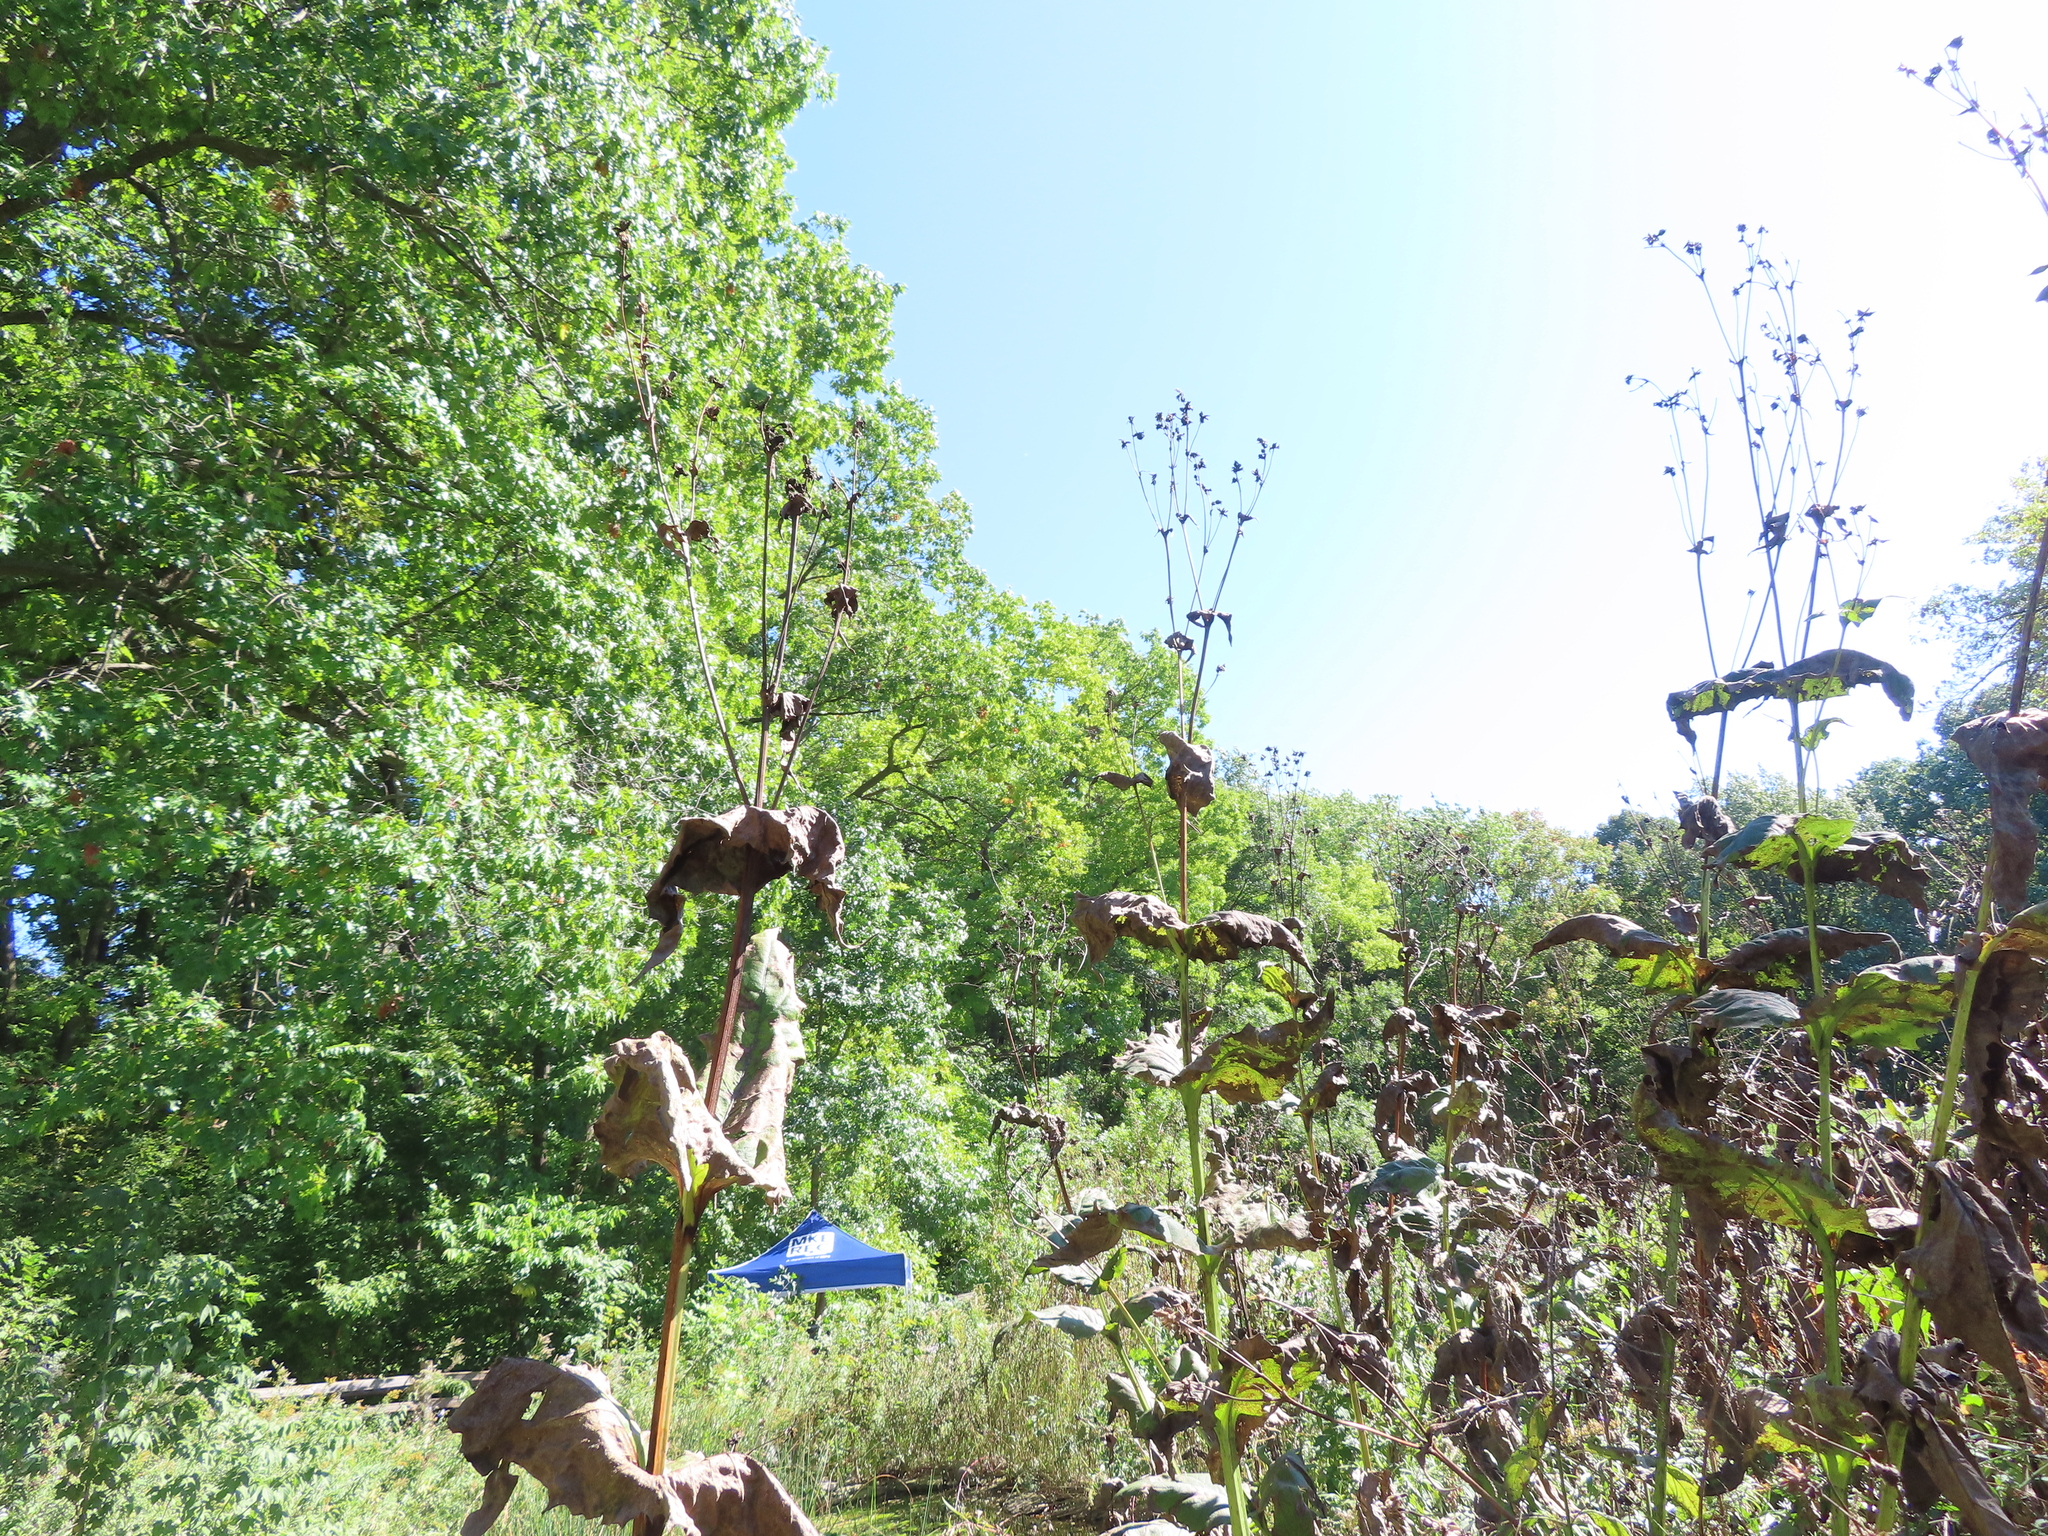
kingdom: Plantae
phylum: Tracheophyta
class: Magnoliopsida
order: Asterales
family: Asteraceae
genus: Silphium
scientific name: Silphium perfoliatum
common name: Cup-plant
